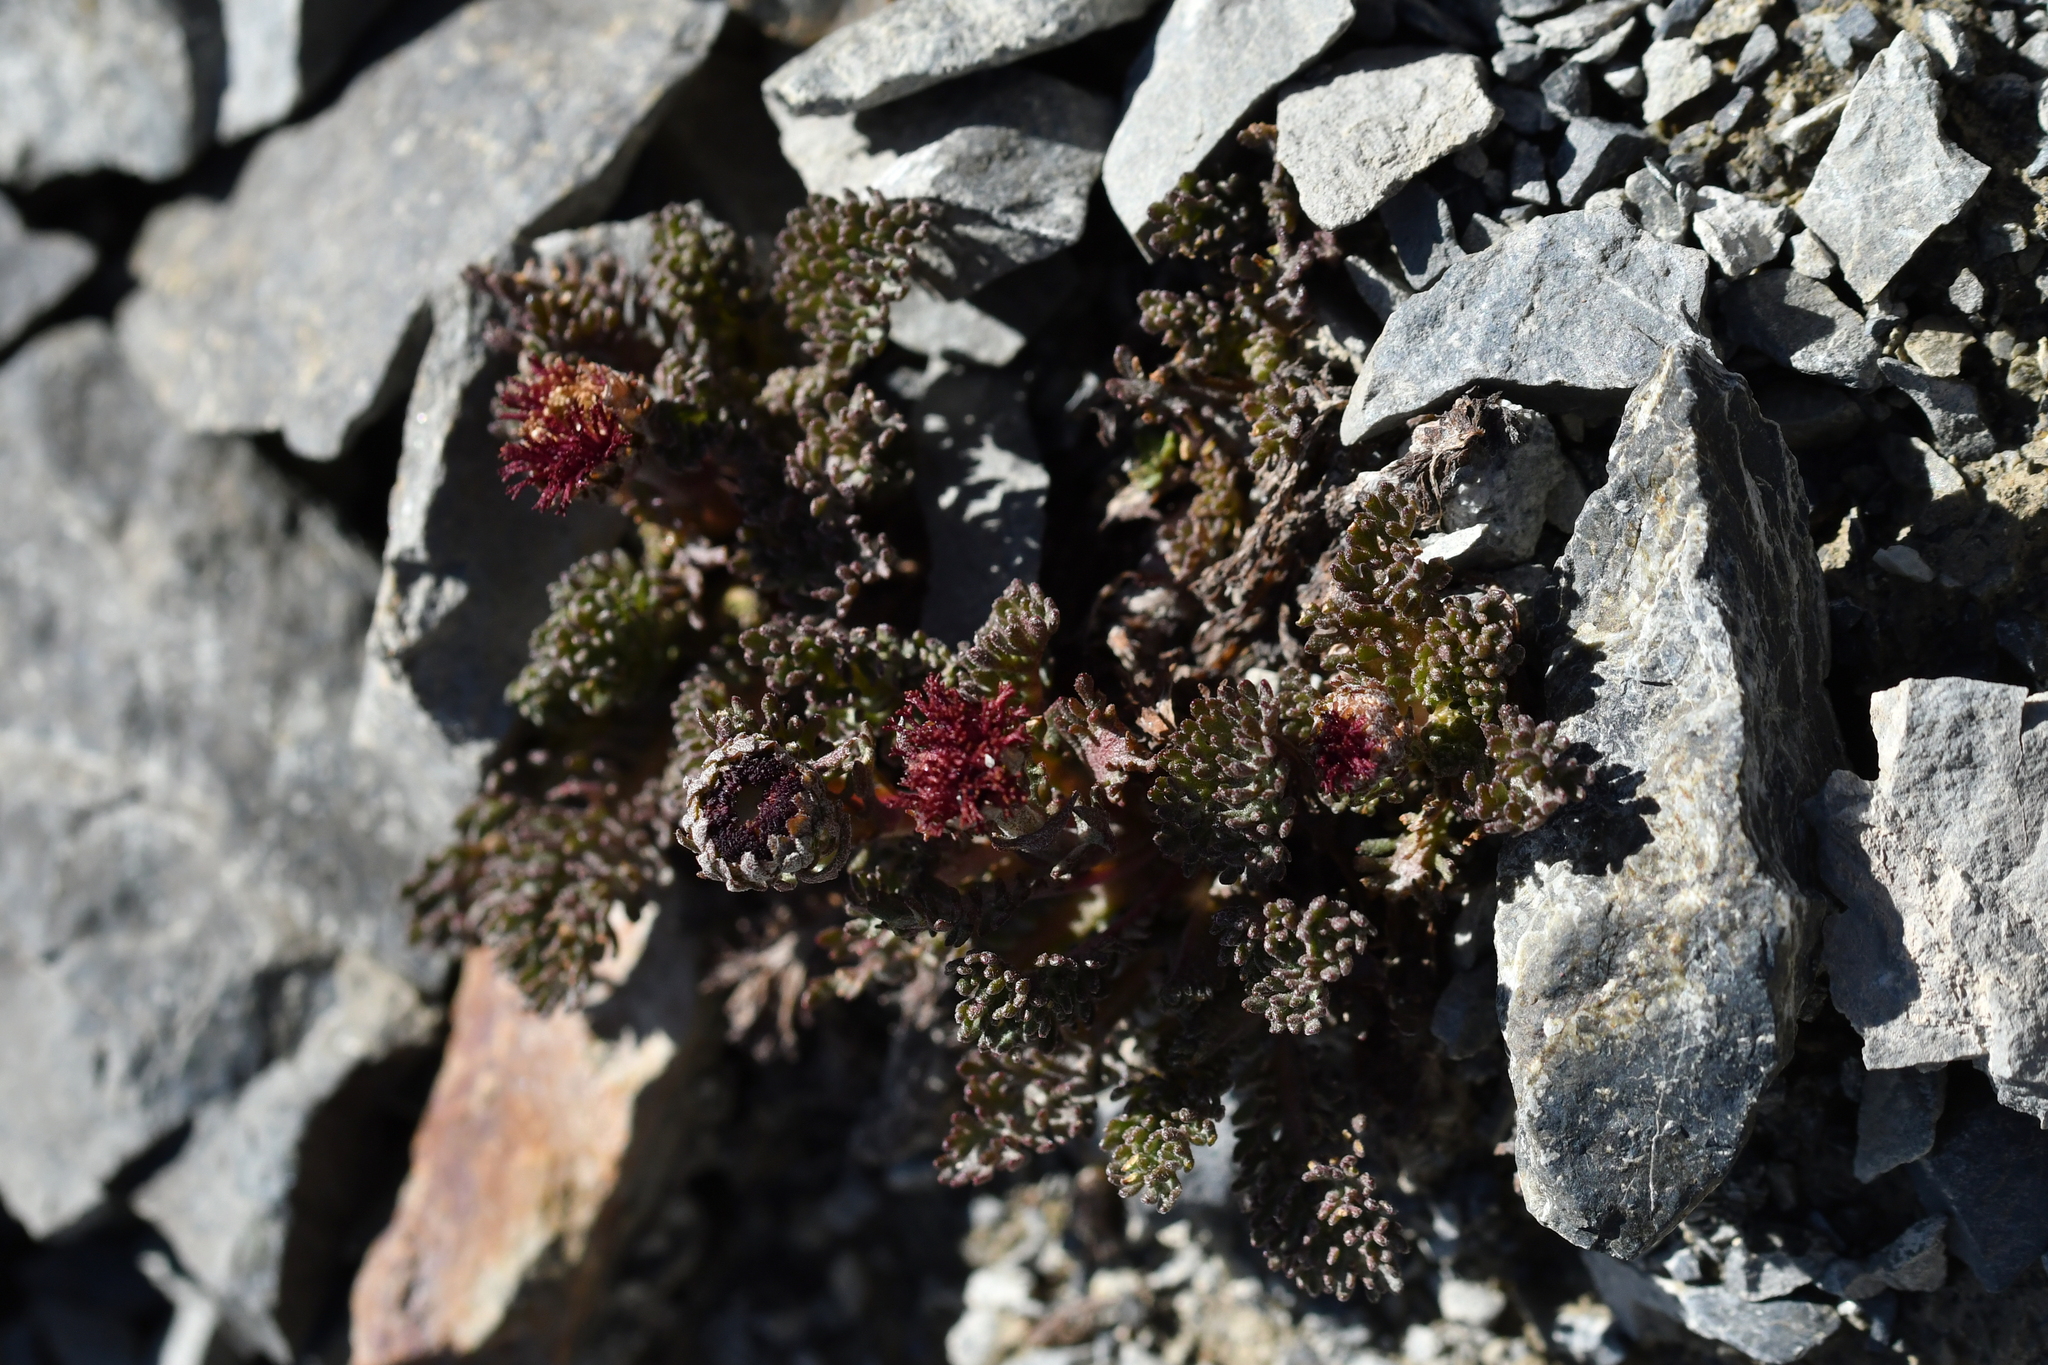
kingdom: Plantae
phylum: Tracheophyta
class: Magnoliopsida
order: Asterales
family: Asteraceae
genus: Leptinella
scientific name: Leptinella atrata
